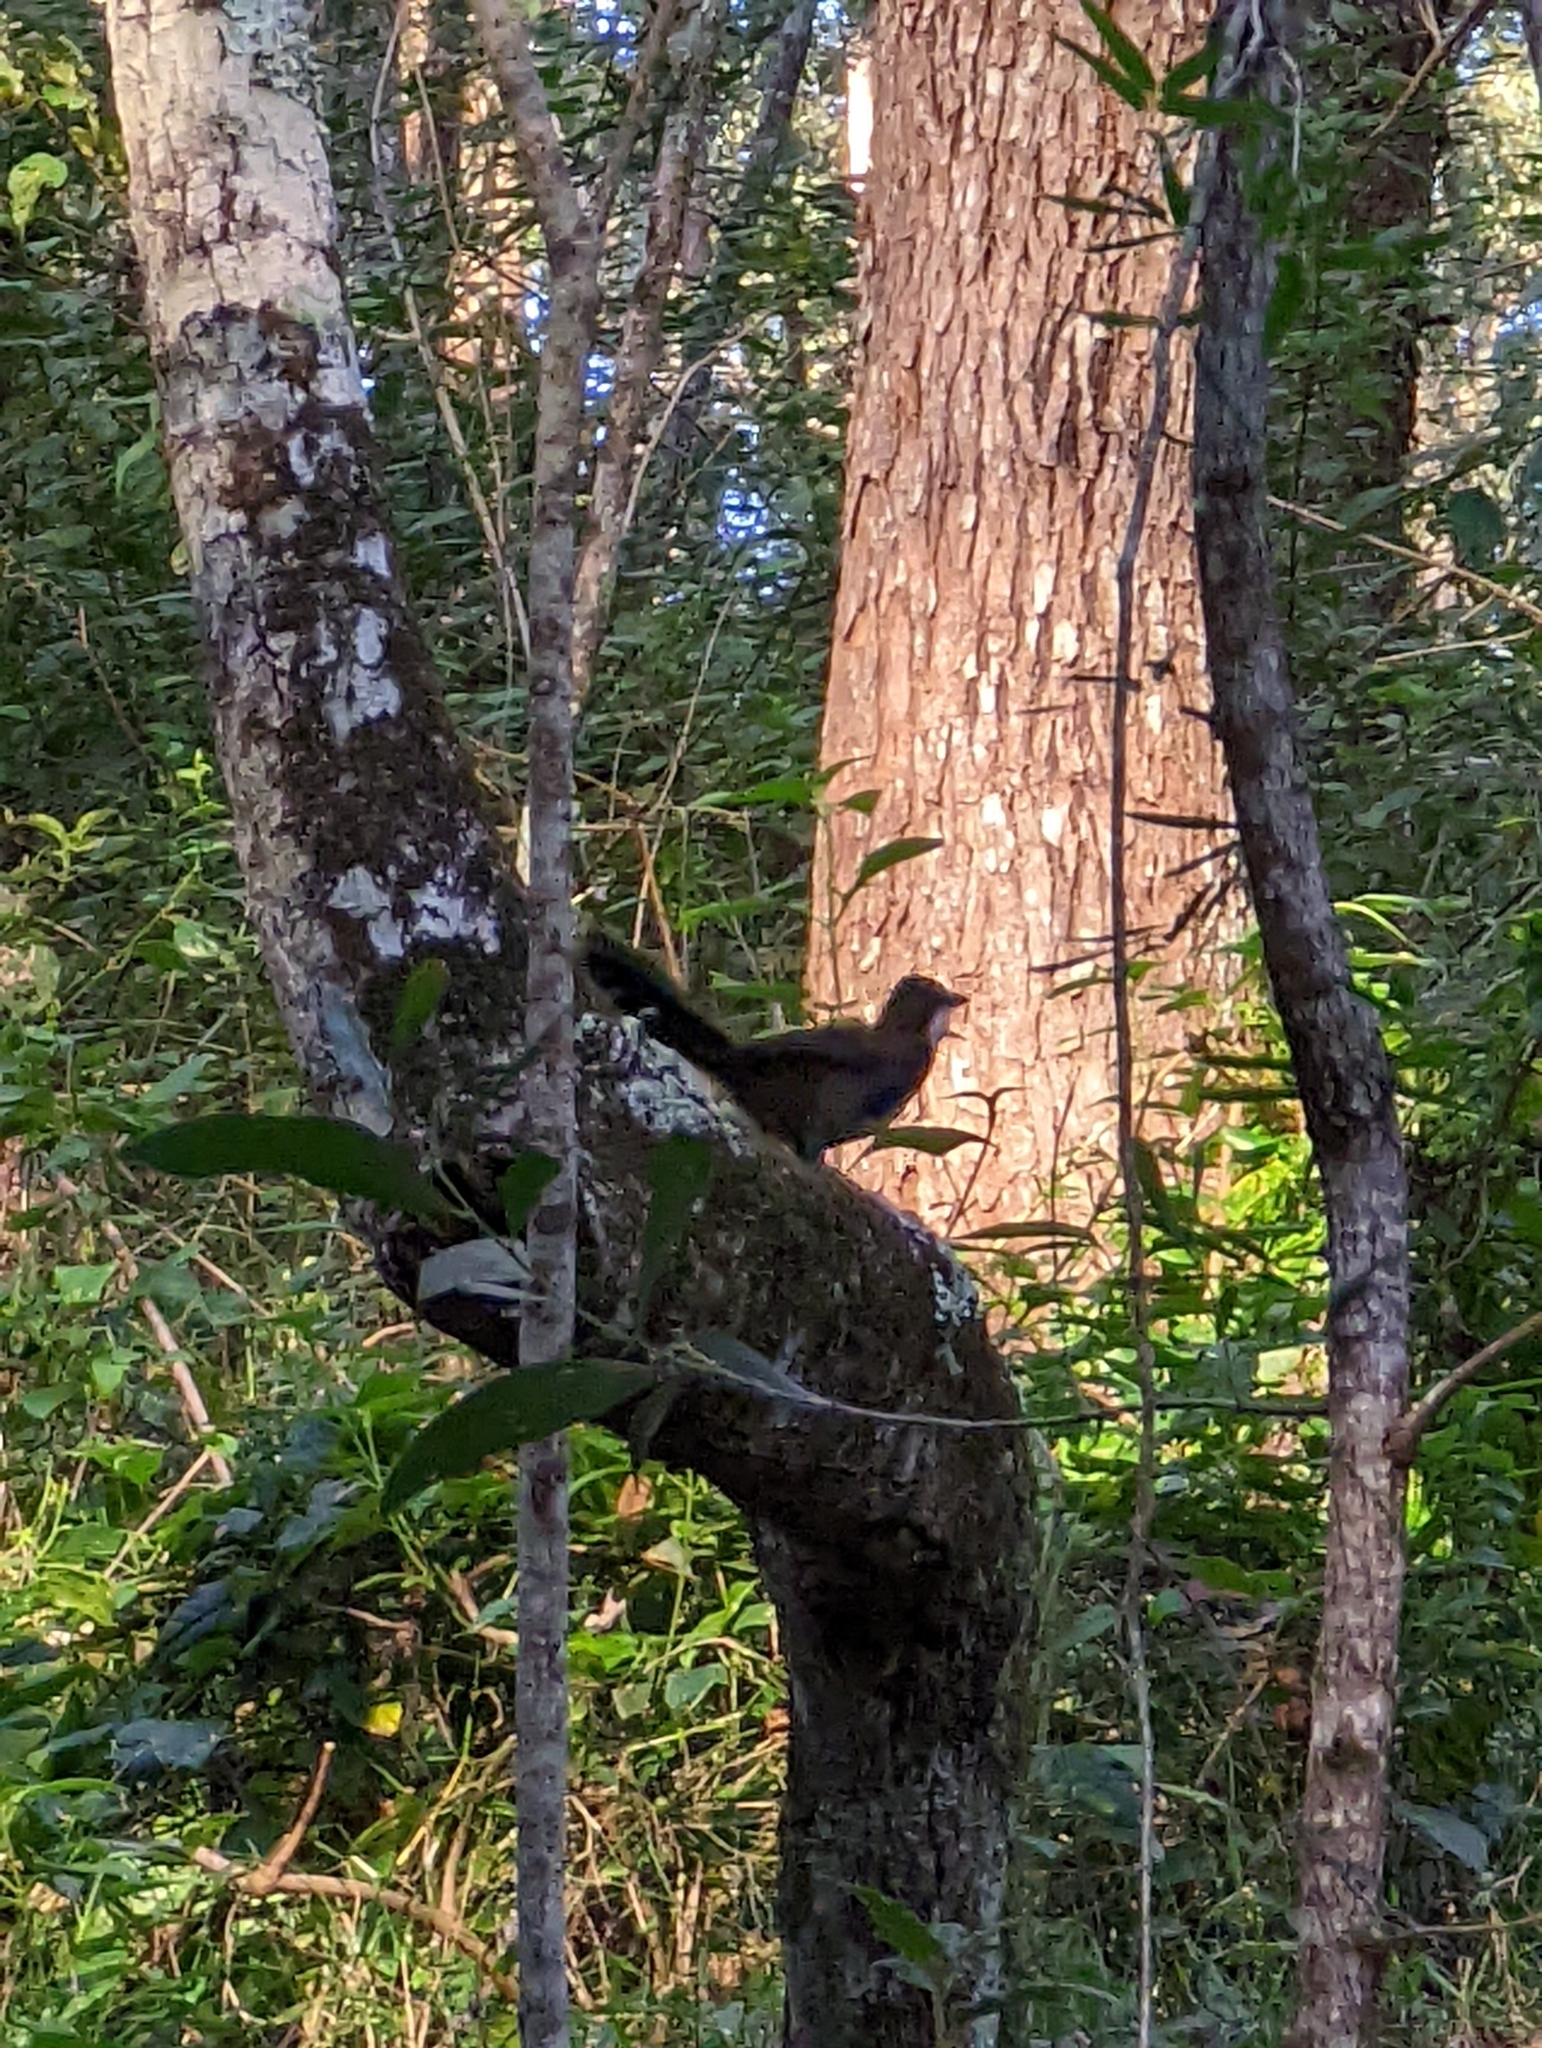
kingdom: Animalia
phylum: Chordata
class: Aves
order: Passeriformes
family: Psophodidae
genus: Psophodes
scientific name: Psophodes olivaceus
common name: Eastern whipbird
